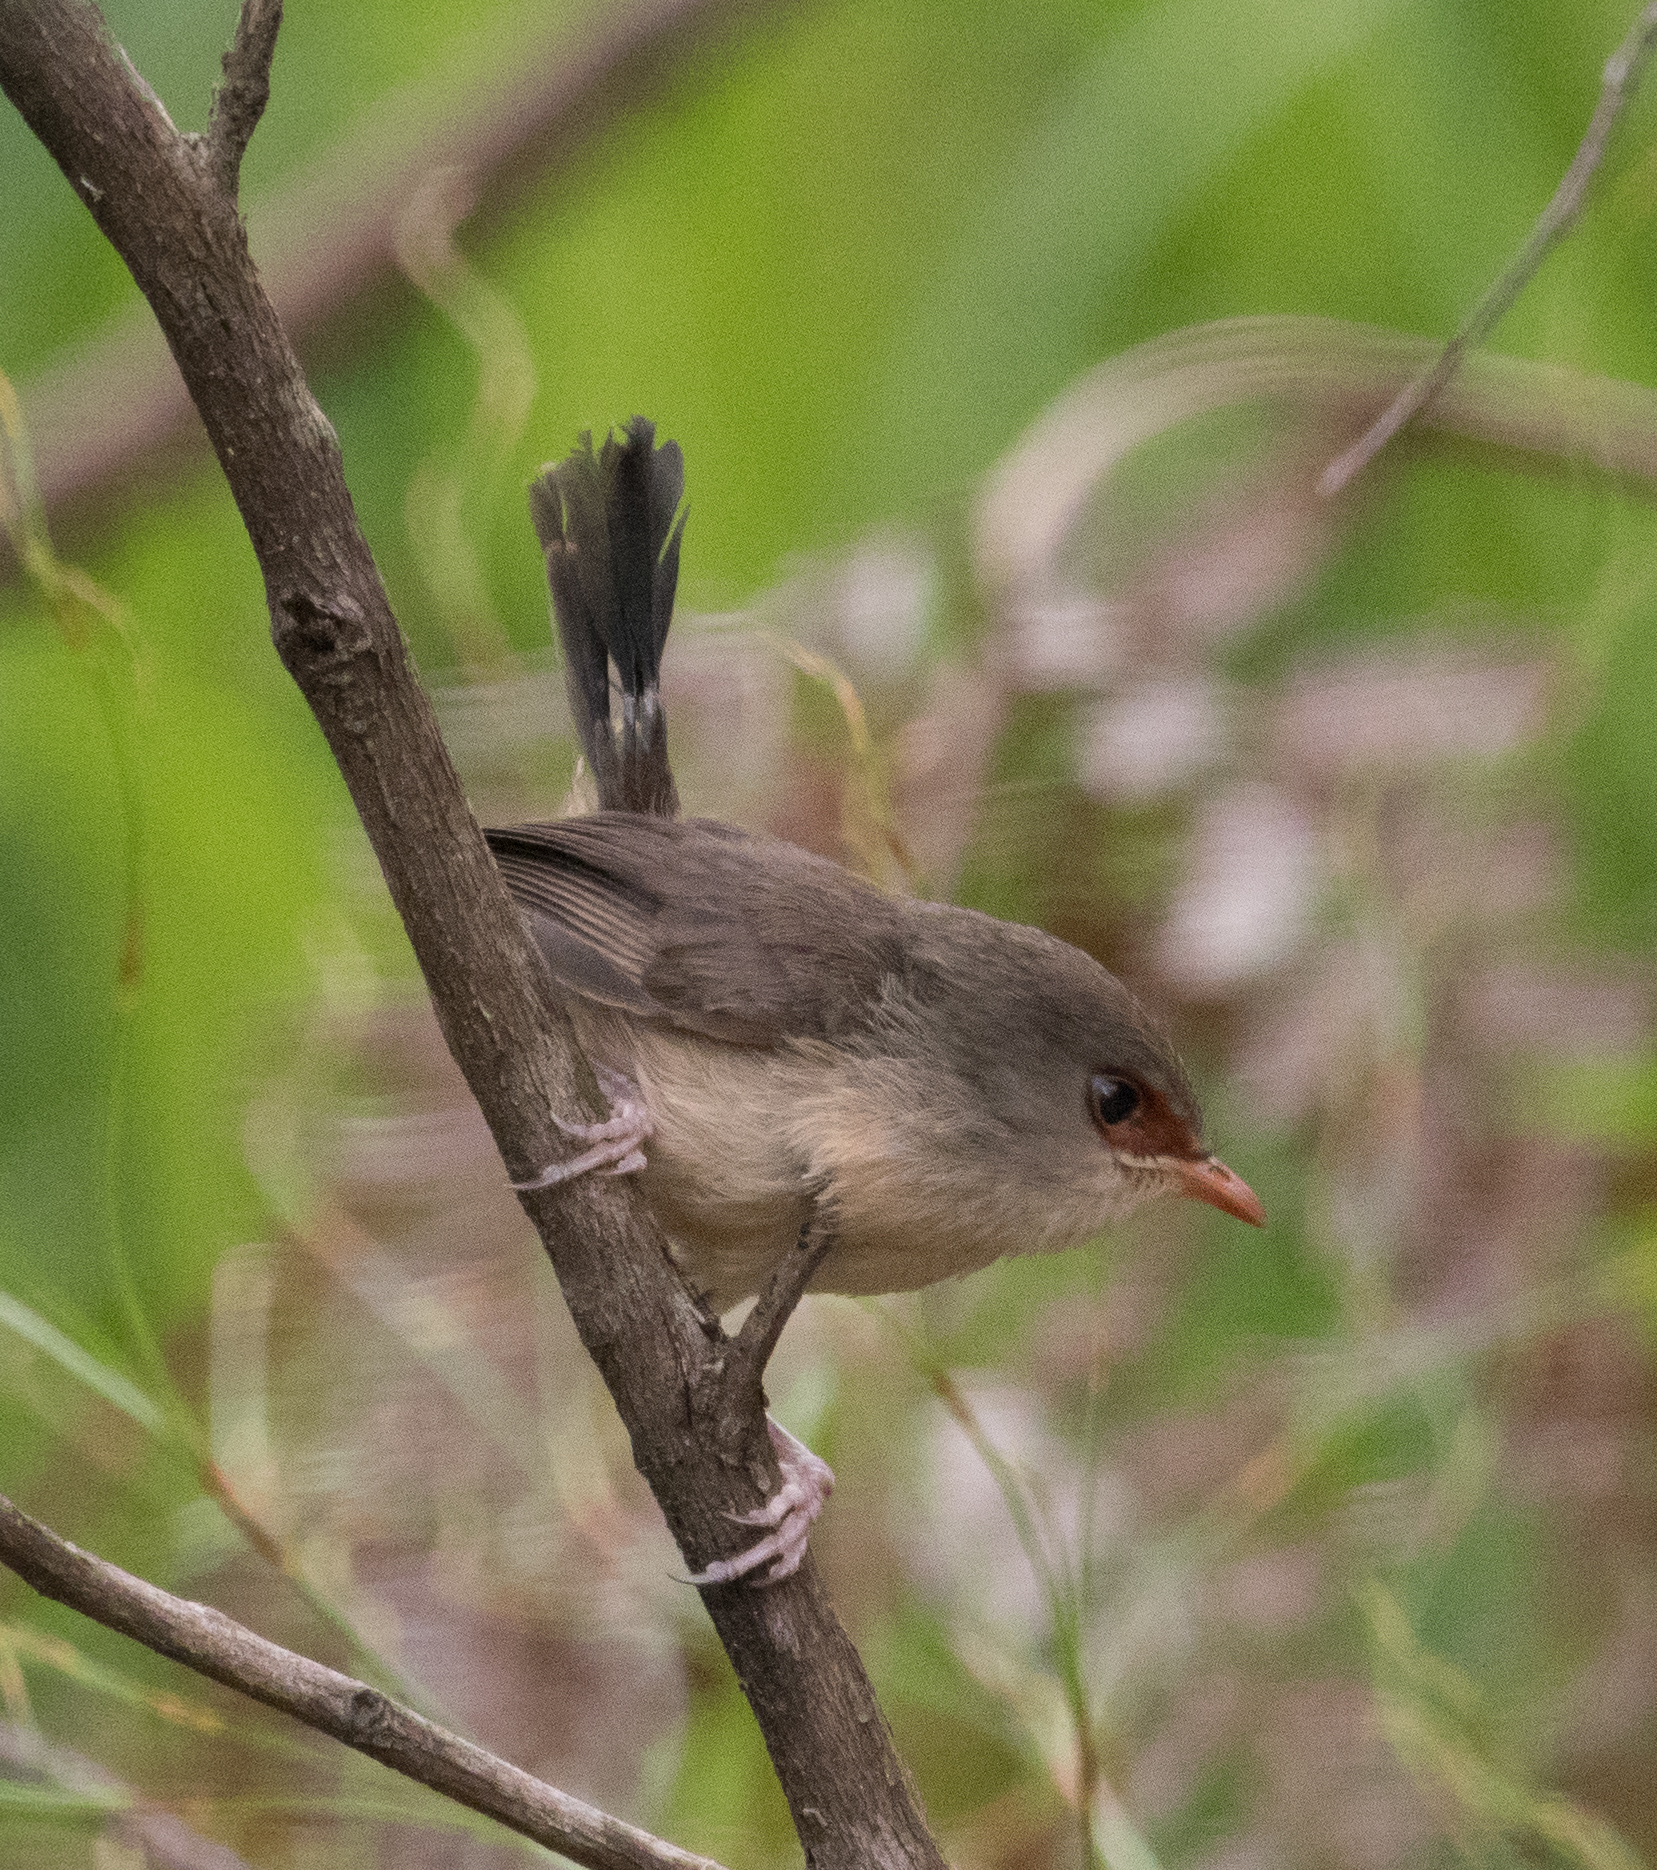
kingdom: Animalia
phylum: Chordata
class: Aves
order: Passeriformes
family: Maluridae
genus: Malurus
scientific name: Malurus lamberti
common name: Variegated fairywren
